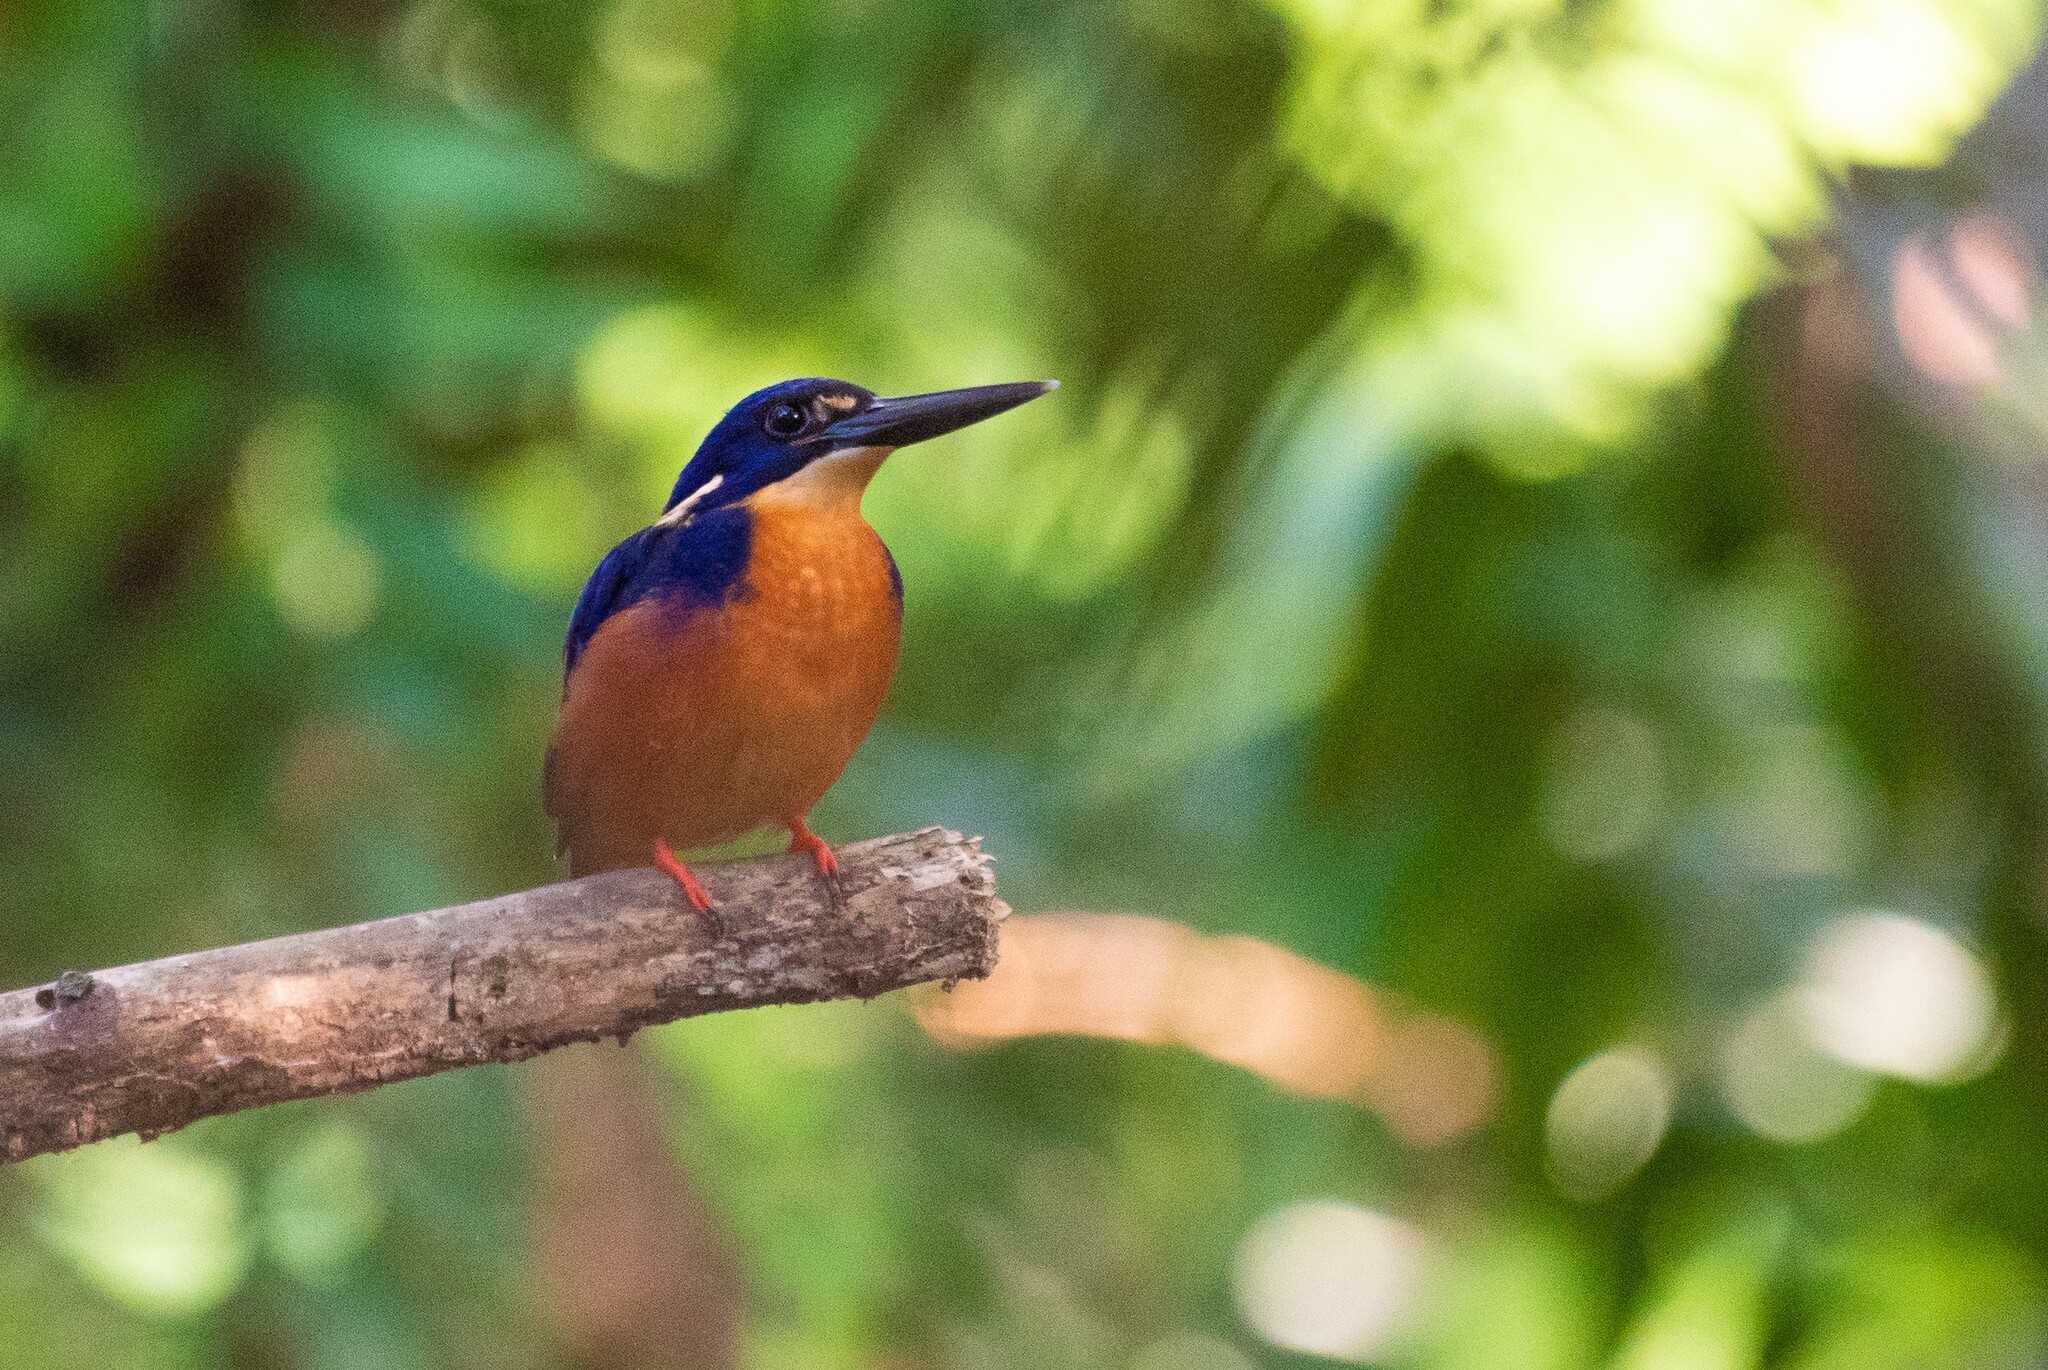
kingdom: Animalia
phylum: Chordata
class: Aves
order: Coraciiformes
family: Alcedinidae
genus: Ceyx
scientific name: Ceyx azureus
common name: Azure kingfisher
